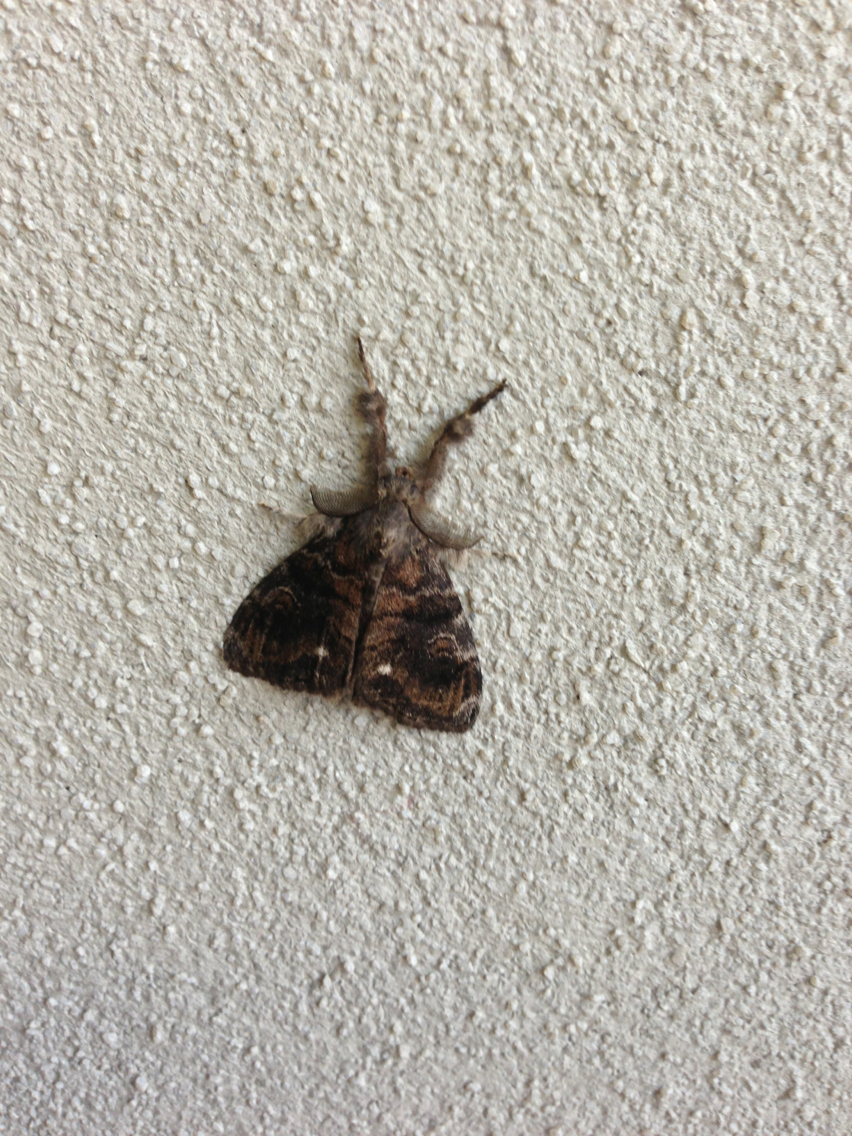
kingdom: Animalia
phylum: Arthropoda
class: Insecta
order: Lepidoptera
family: Erebidae
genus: Orgyia
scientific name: Orgyia leucostigma
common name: White-marked tussock moth
